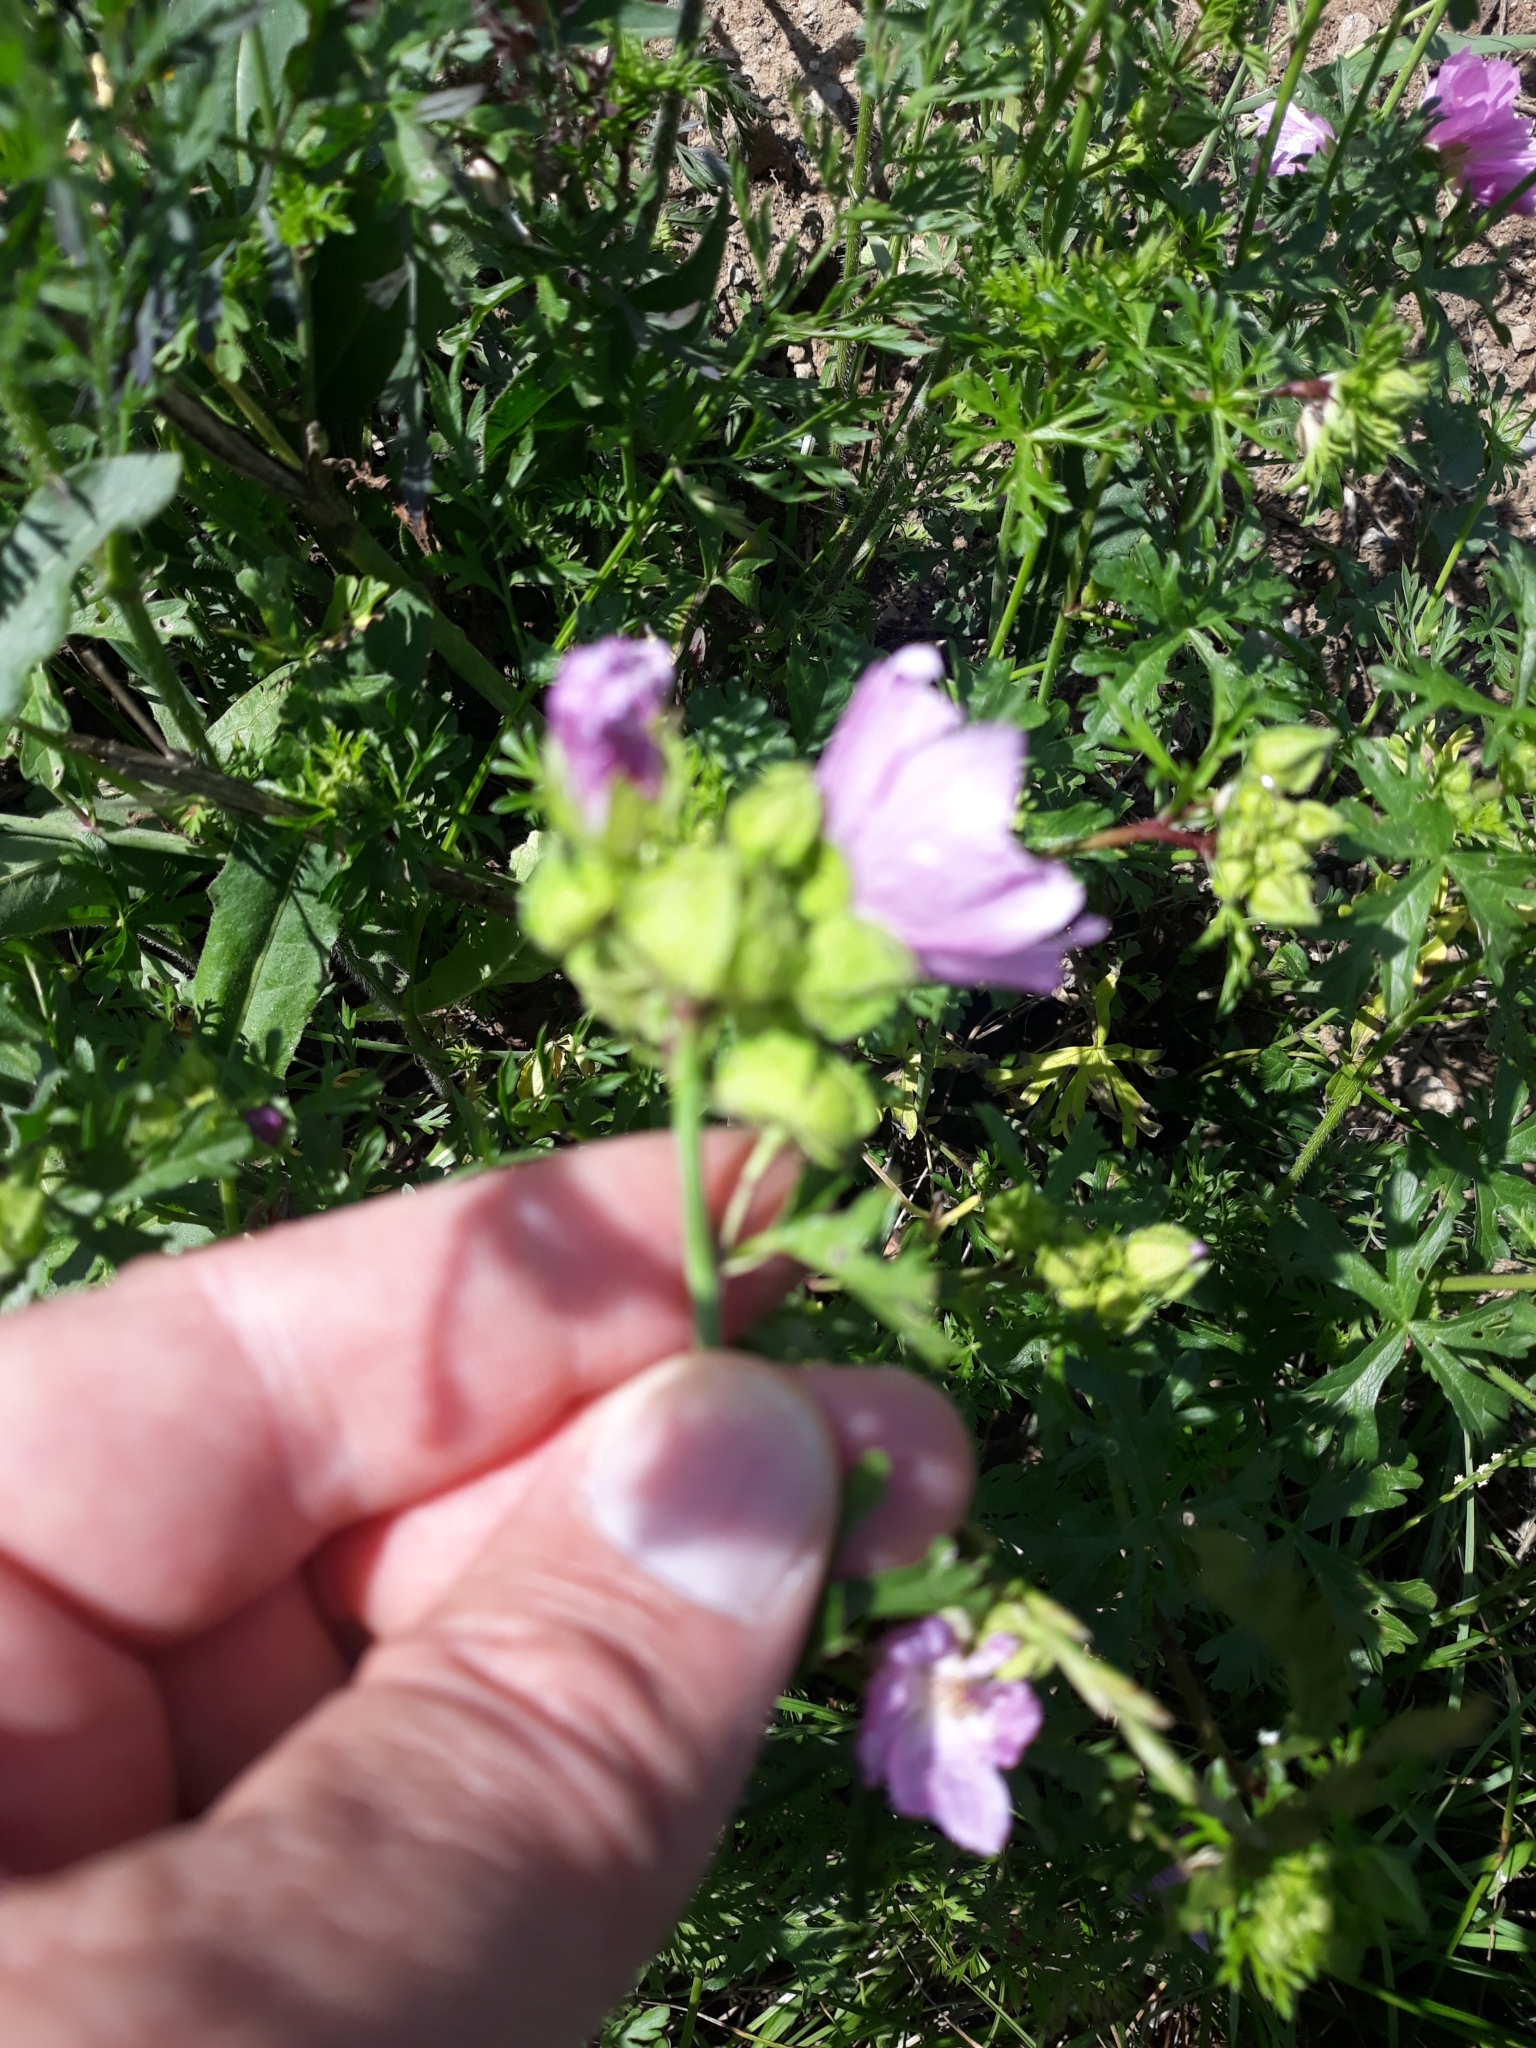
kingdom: Plantae
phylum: Tracheophyta
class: Magnoliopsida
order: Malvales
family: Malvaceae
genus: Malva
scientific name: Malva moschata
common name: Musk mallow
